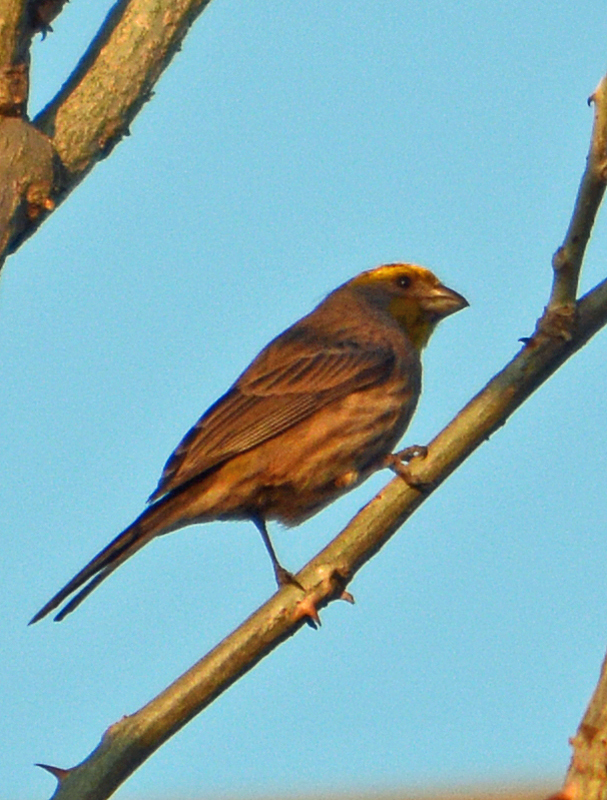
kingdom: Animalia
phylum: Chordata
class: Aves
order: Passeriformes
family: Fringillidae
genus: Haemorhous
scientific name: Haemorhous mexicanus
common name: House finch
